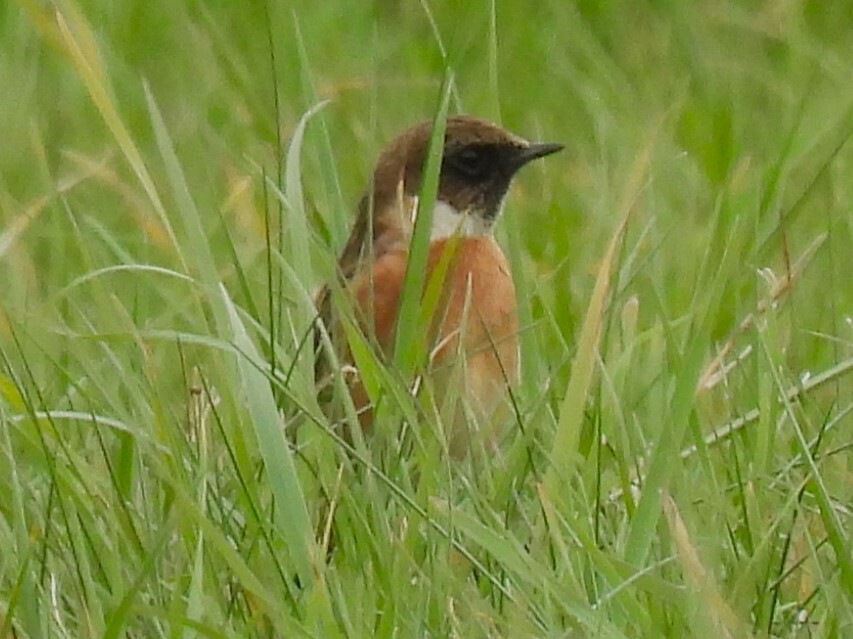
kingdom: Animalia
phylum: Chordata
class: Aves
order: Passeriformes
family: Muscicapidae
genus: Saxicola
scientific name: Saxicola rubicola
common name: European stonechat
